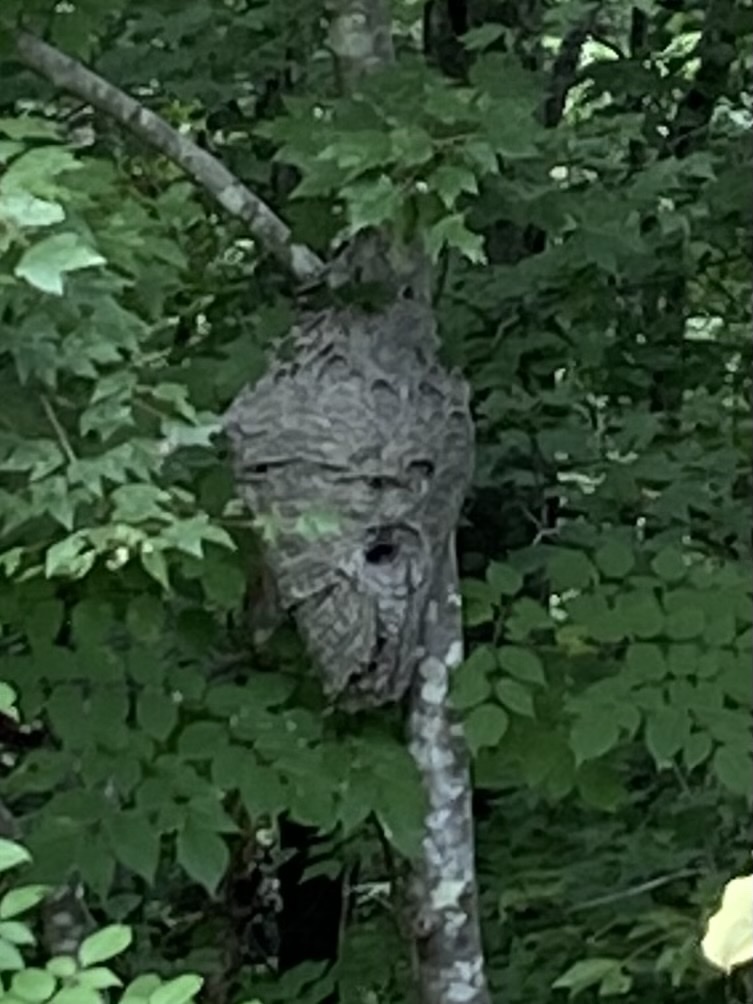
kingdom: Animalia
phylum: Arthropoda
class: Insecta
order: Hymenoptera
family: Vespidae
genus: Dolichovespula
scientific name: Dolichovespula maculata
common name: Bald-faced hornet
